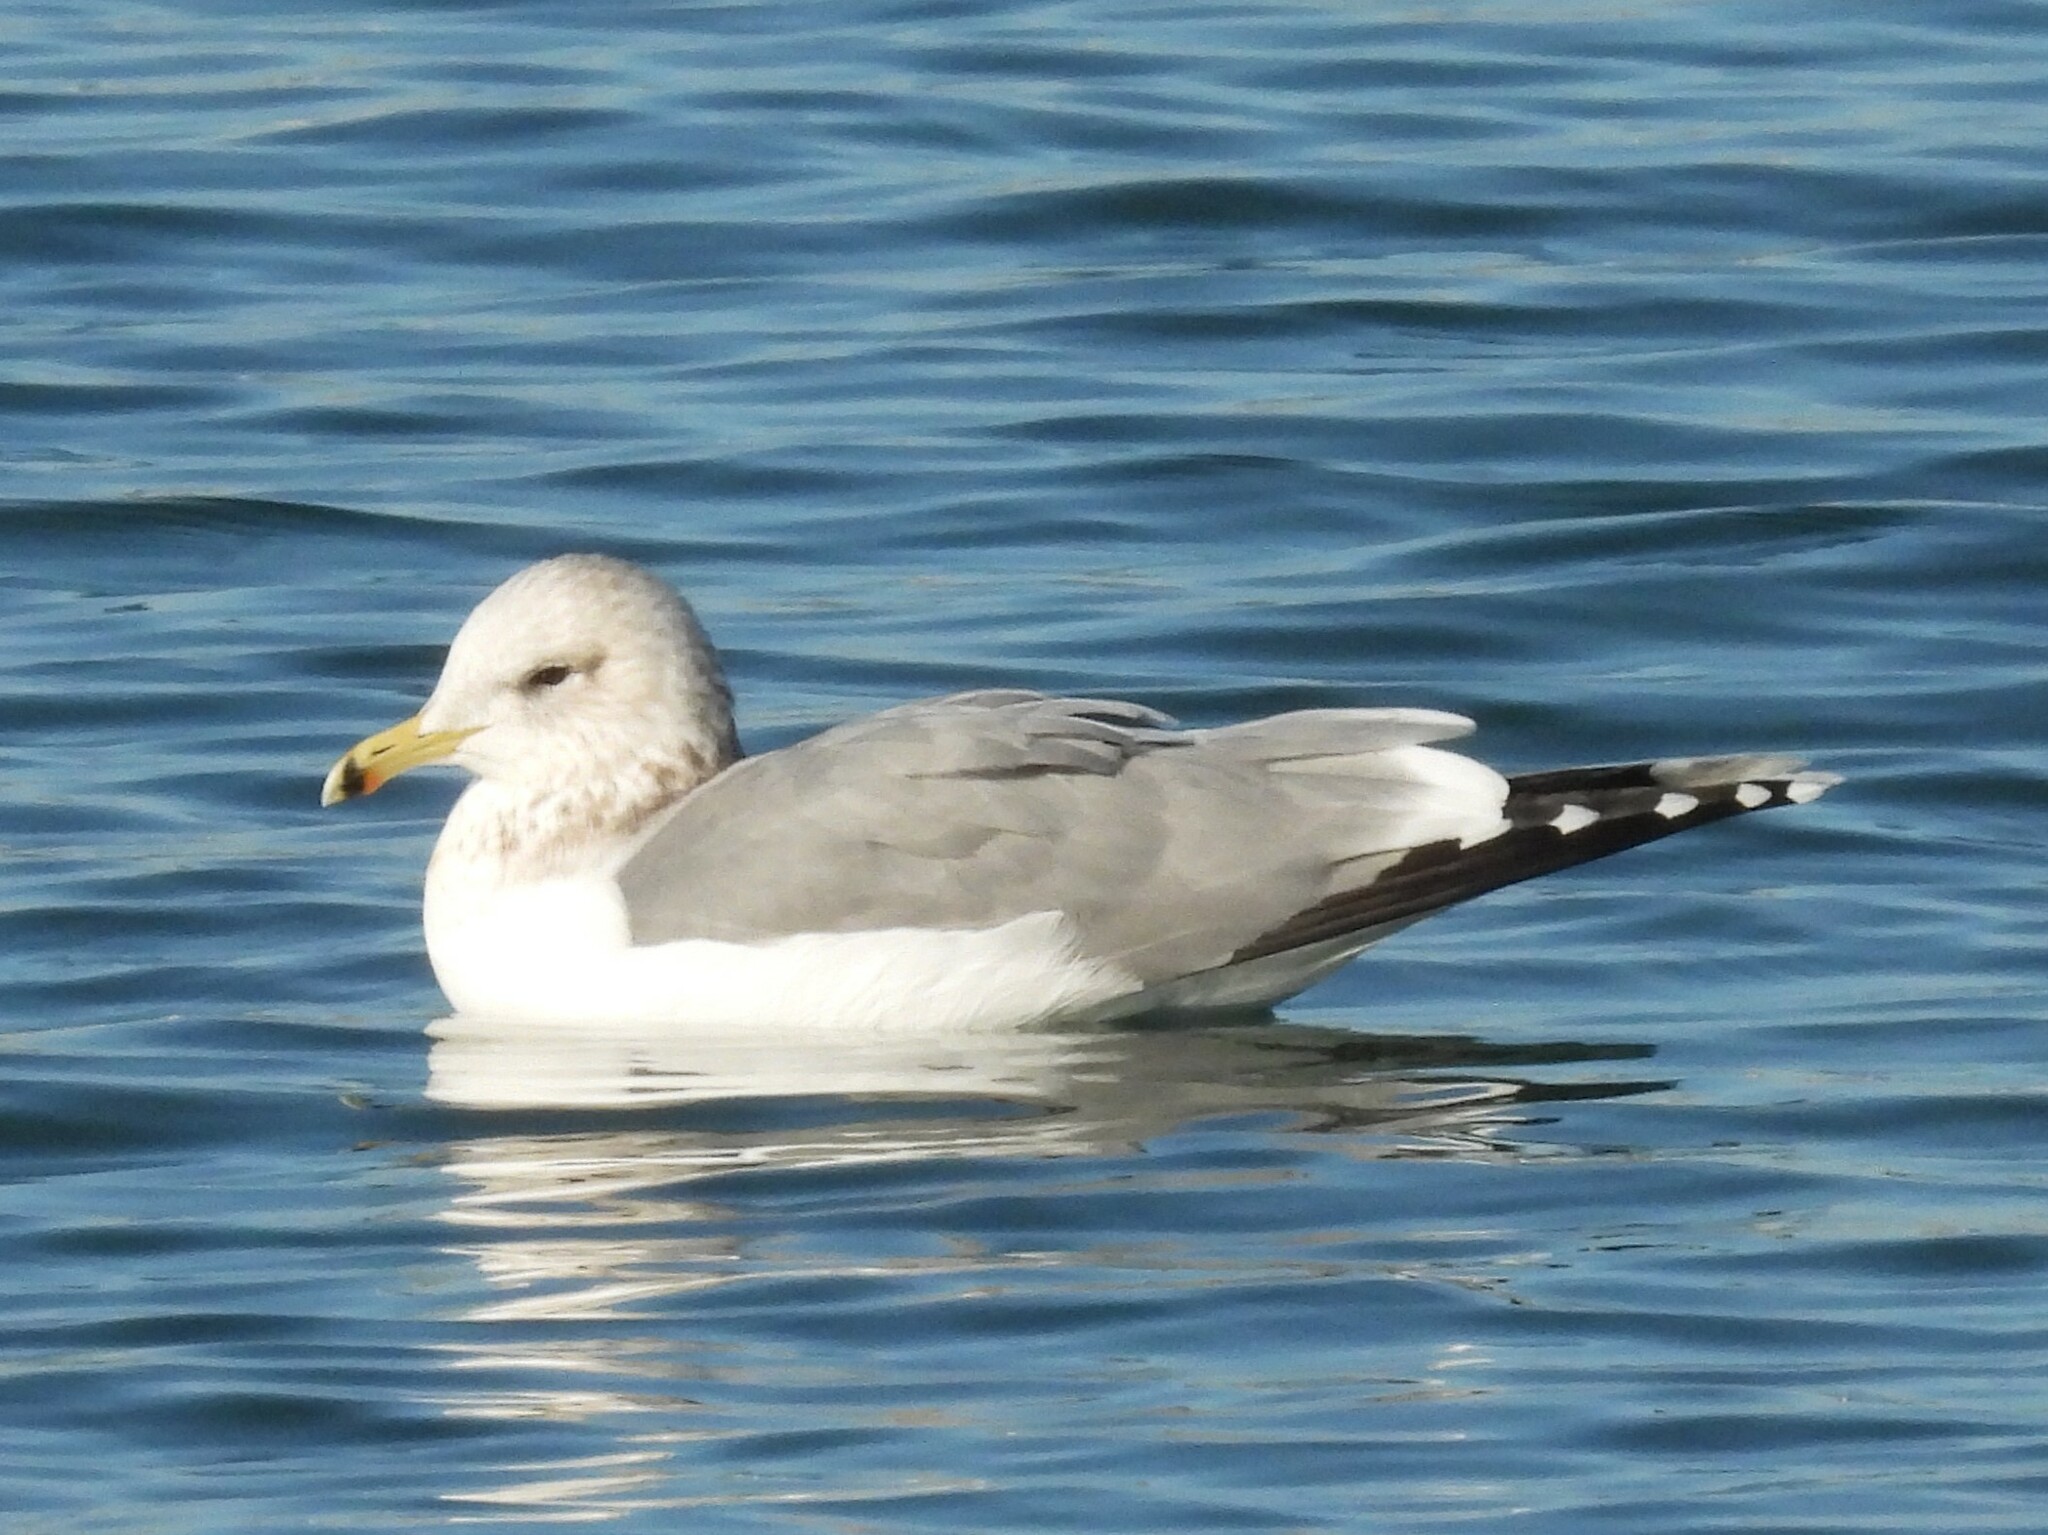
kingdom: Animalia
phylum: Chordata
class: Aves
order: Charadriiformes
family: Laridae
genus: Larus
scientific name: Larus californicus
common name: California gull
